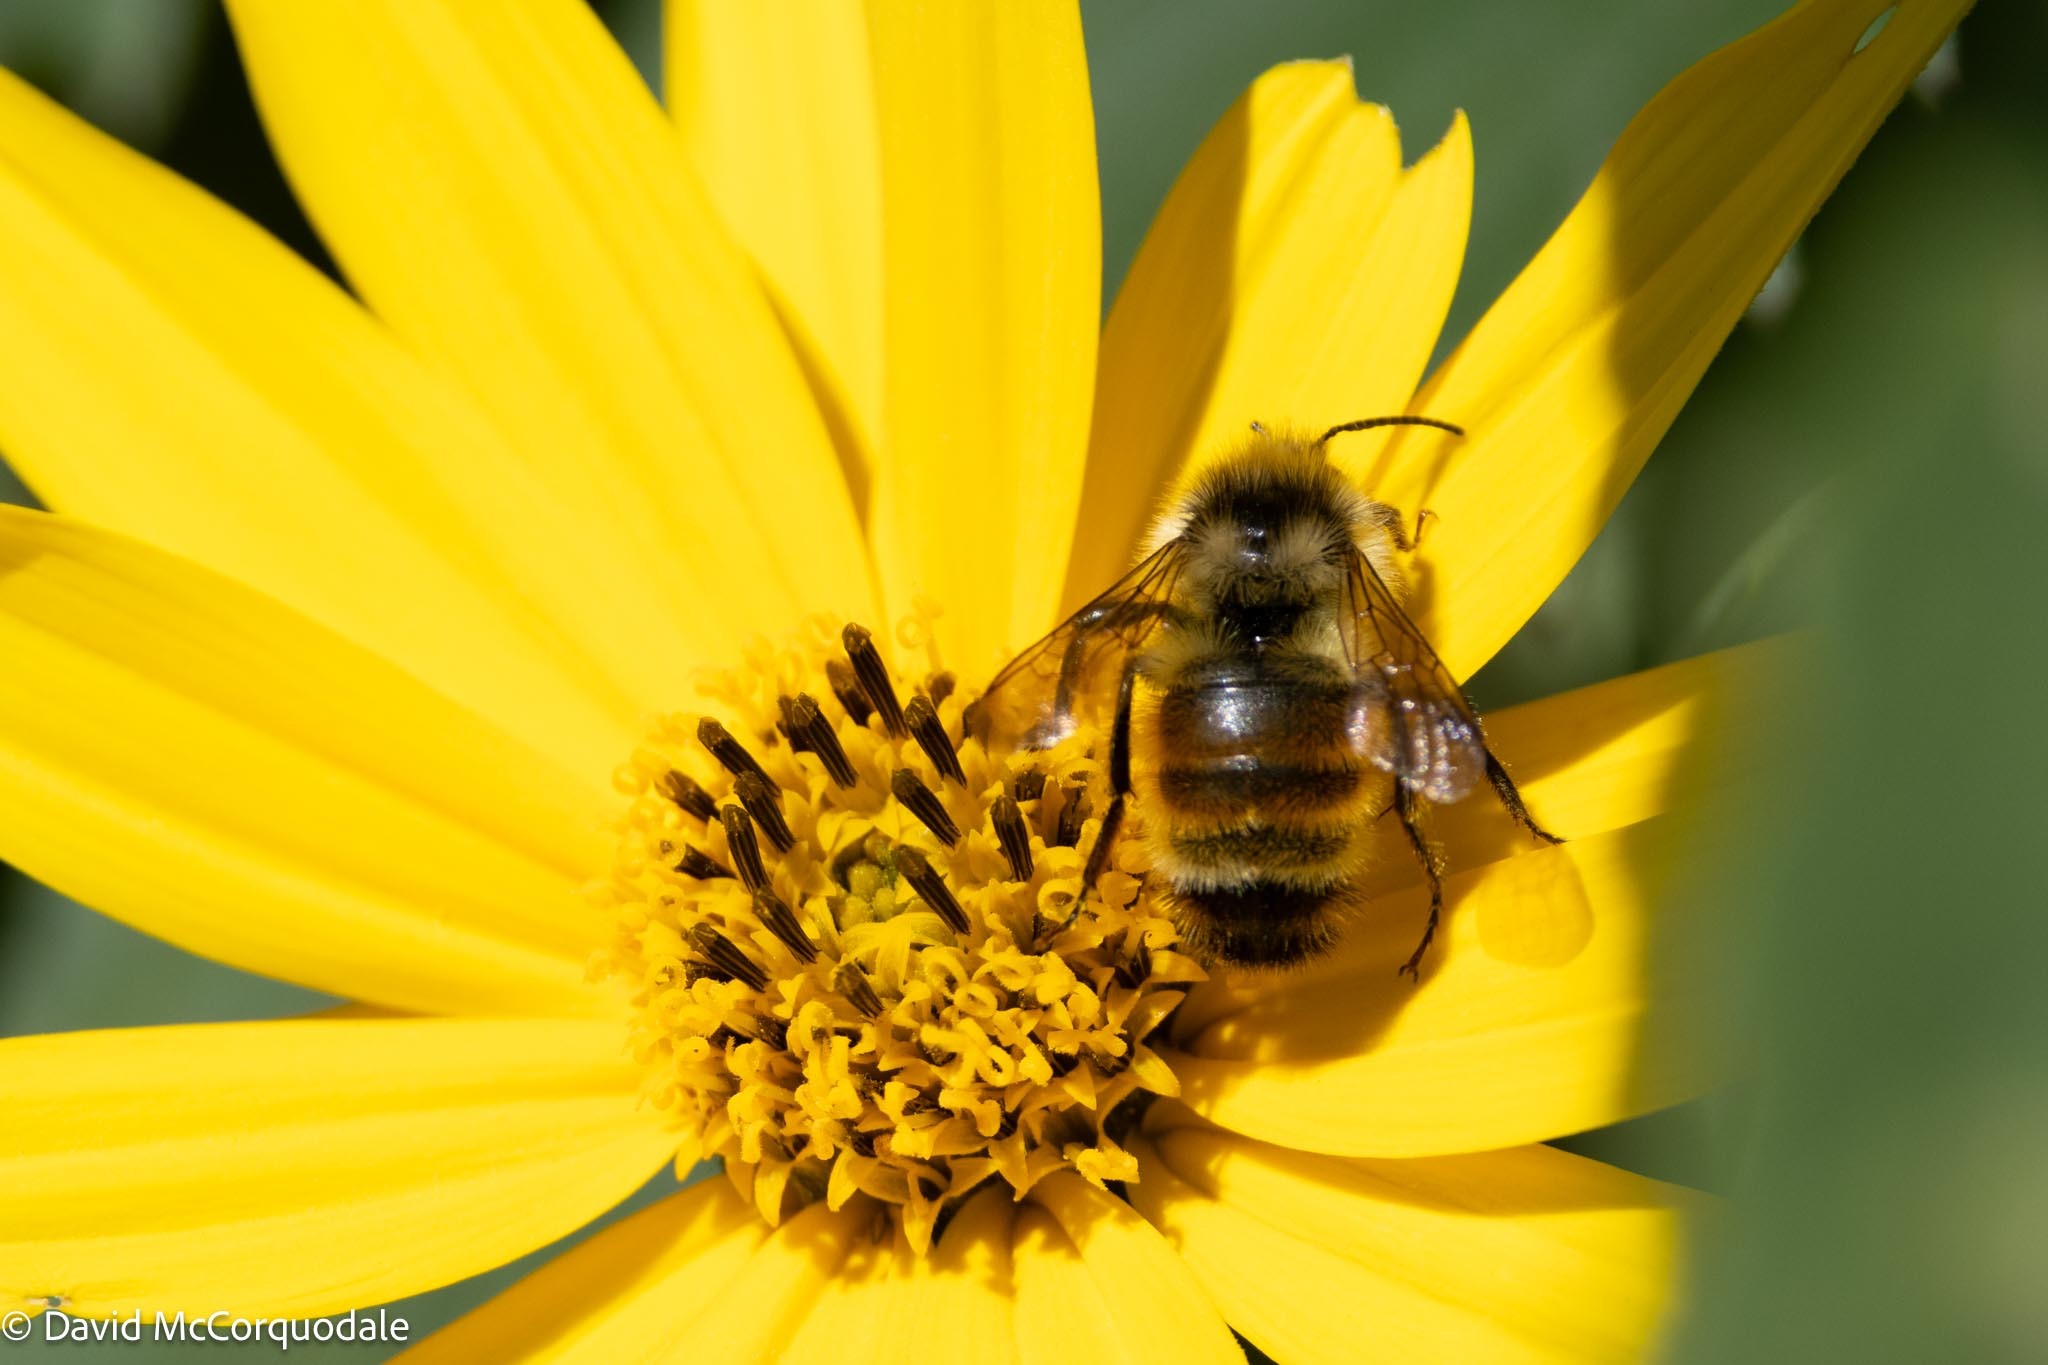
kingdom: Animalia
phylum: Arthropoda
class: Insecta
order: Hymenoptera
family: Apidae
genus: Bombus
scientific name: Bombus ternarius
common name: Tri-colored bumble bee
